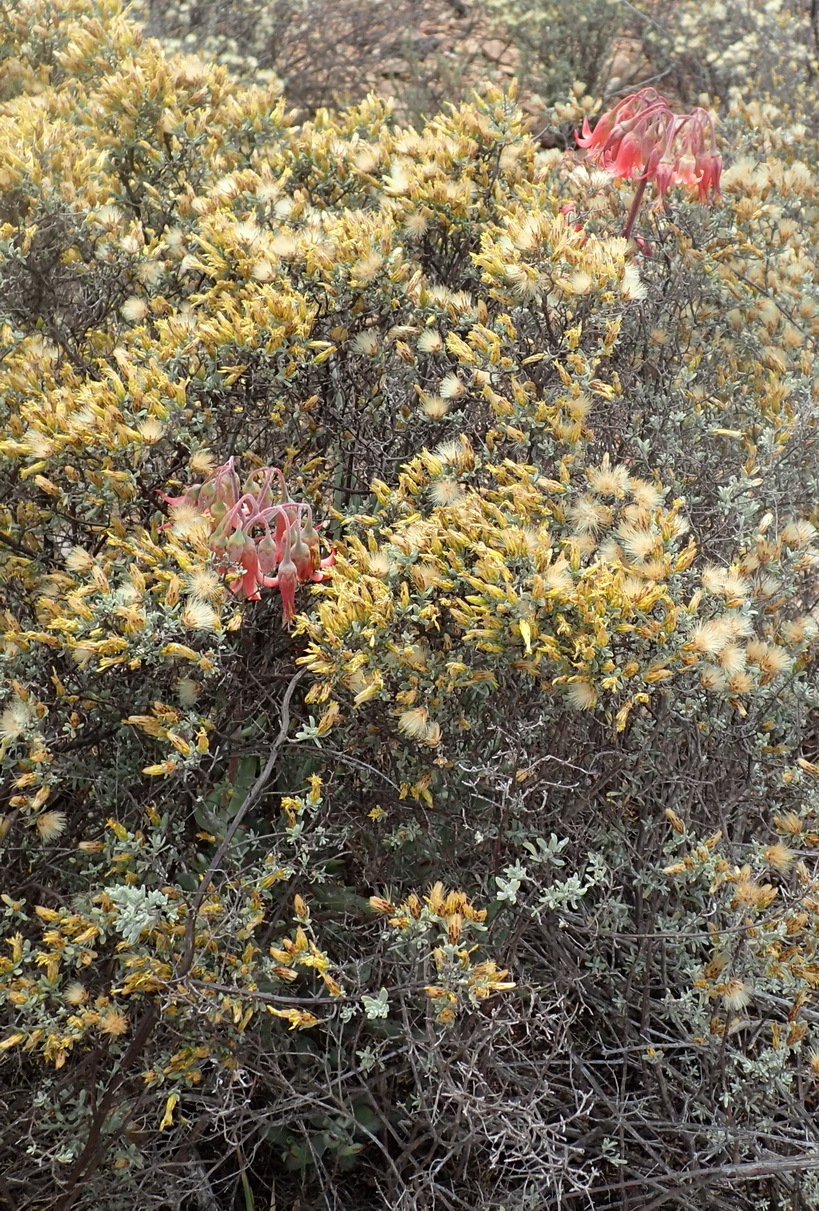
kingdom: Plantae
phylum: Tracheophyta
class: Magnoliopsida
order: Saxifragales
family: Crassulaceae
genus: Cotyledon
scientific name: Cotyledon orbiculata
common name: Pig's ear
